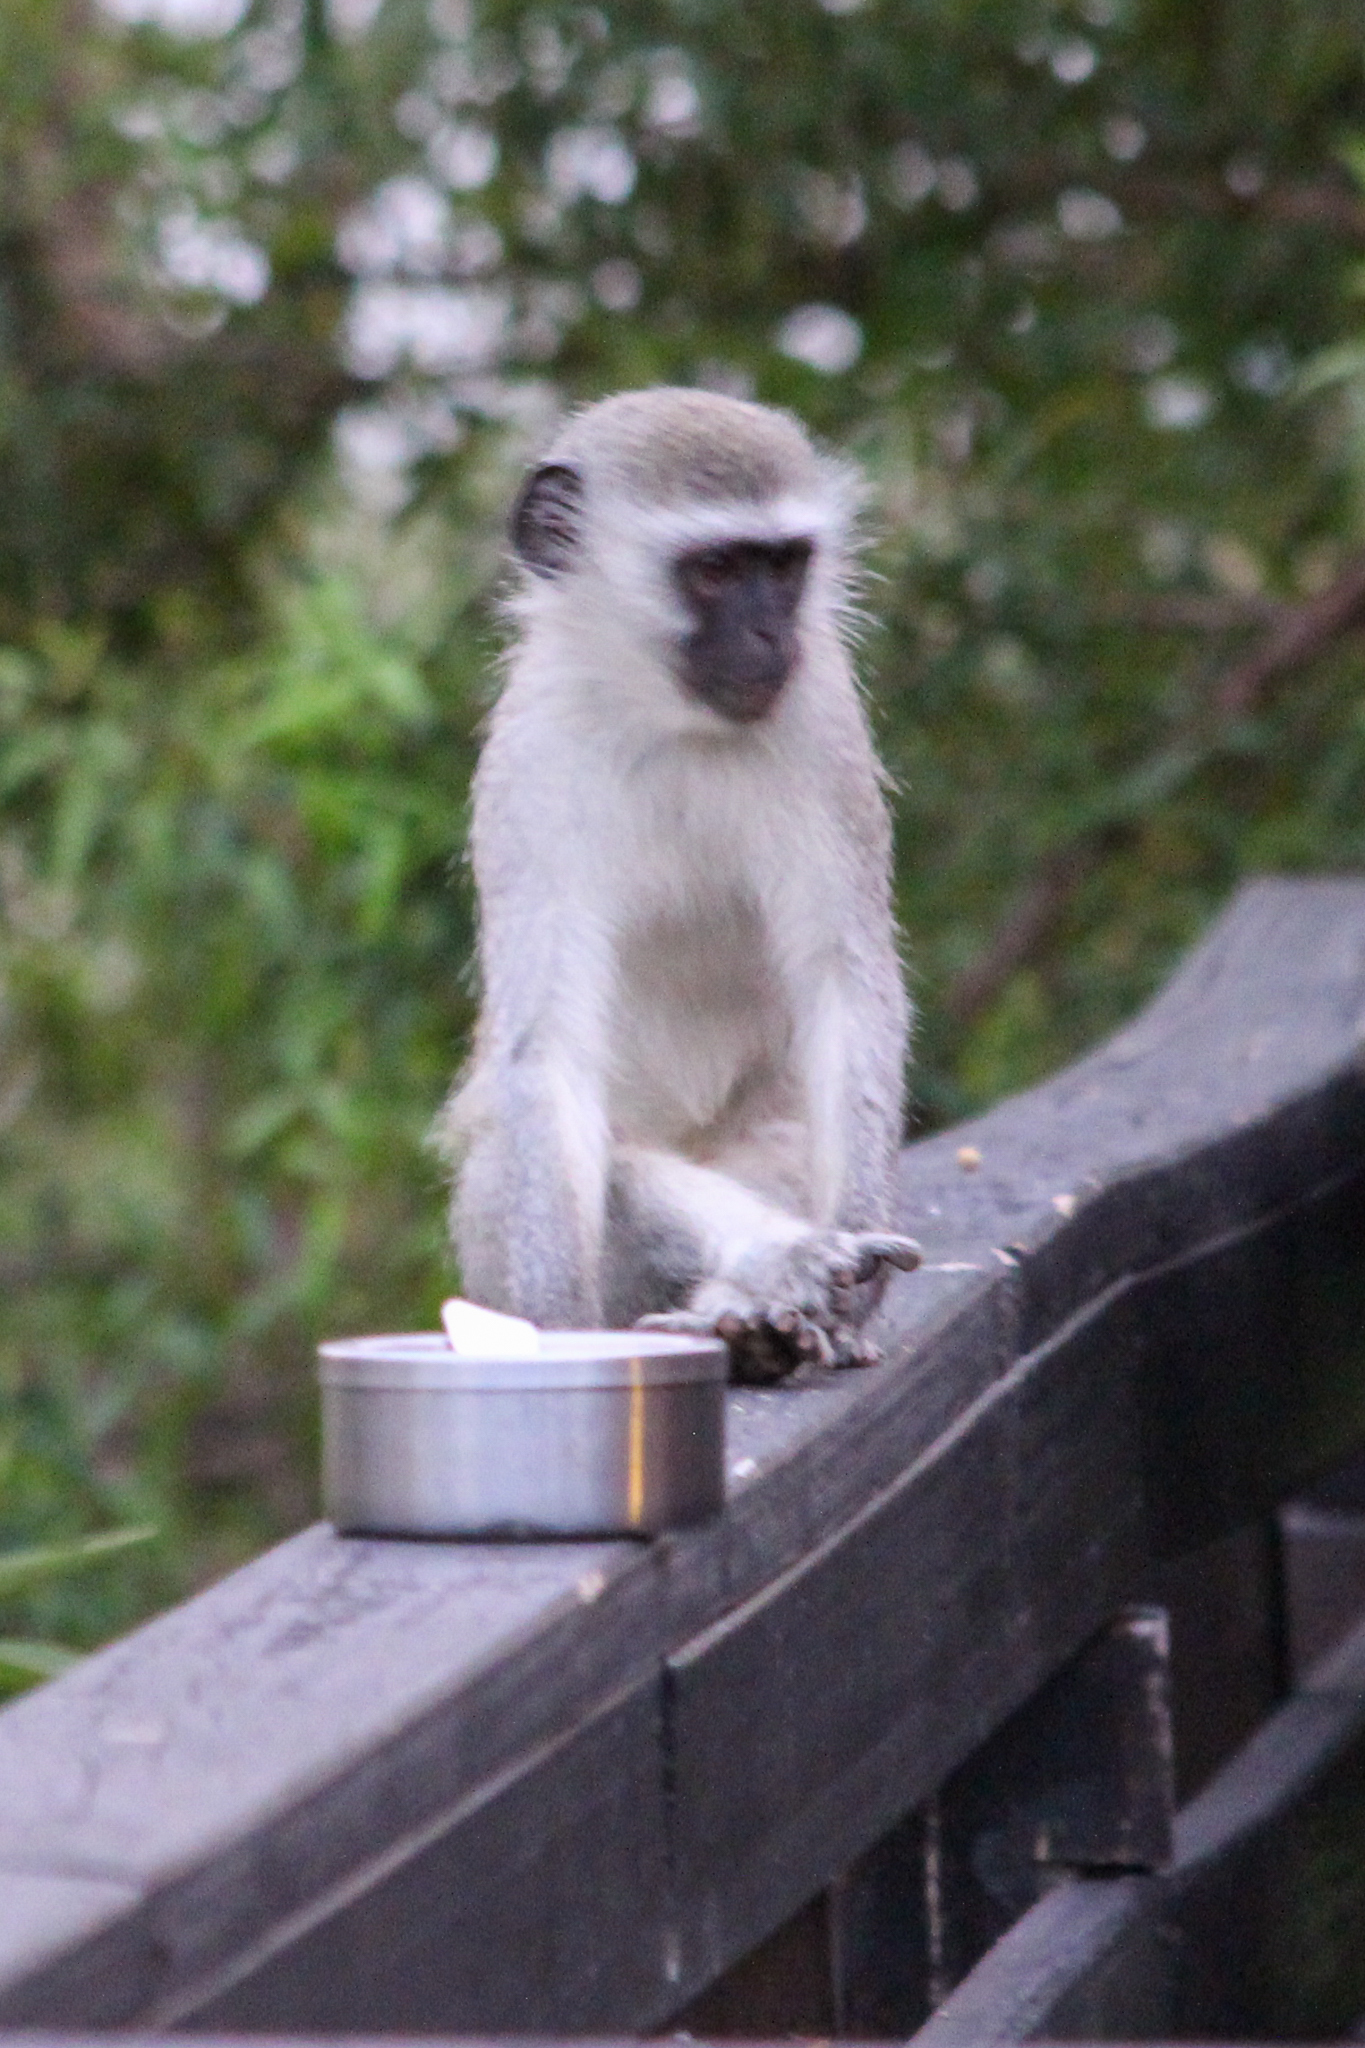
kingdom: Animalia
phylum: Chordata
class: Mammalia
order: Primates
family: Cercopithecidae
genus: Chlorocebus
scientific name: Chlorocebus pygerythrus
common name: Vervet monkey
